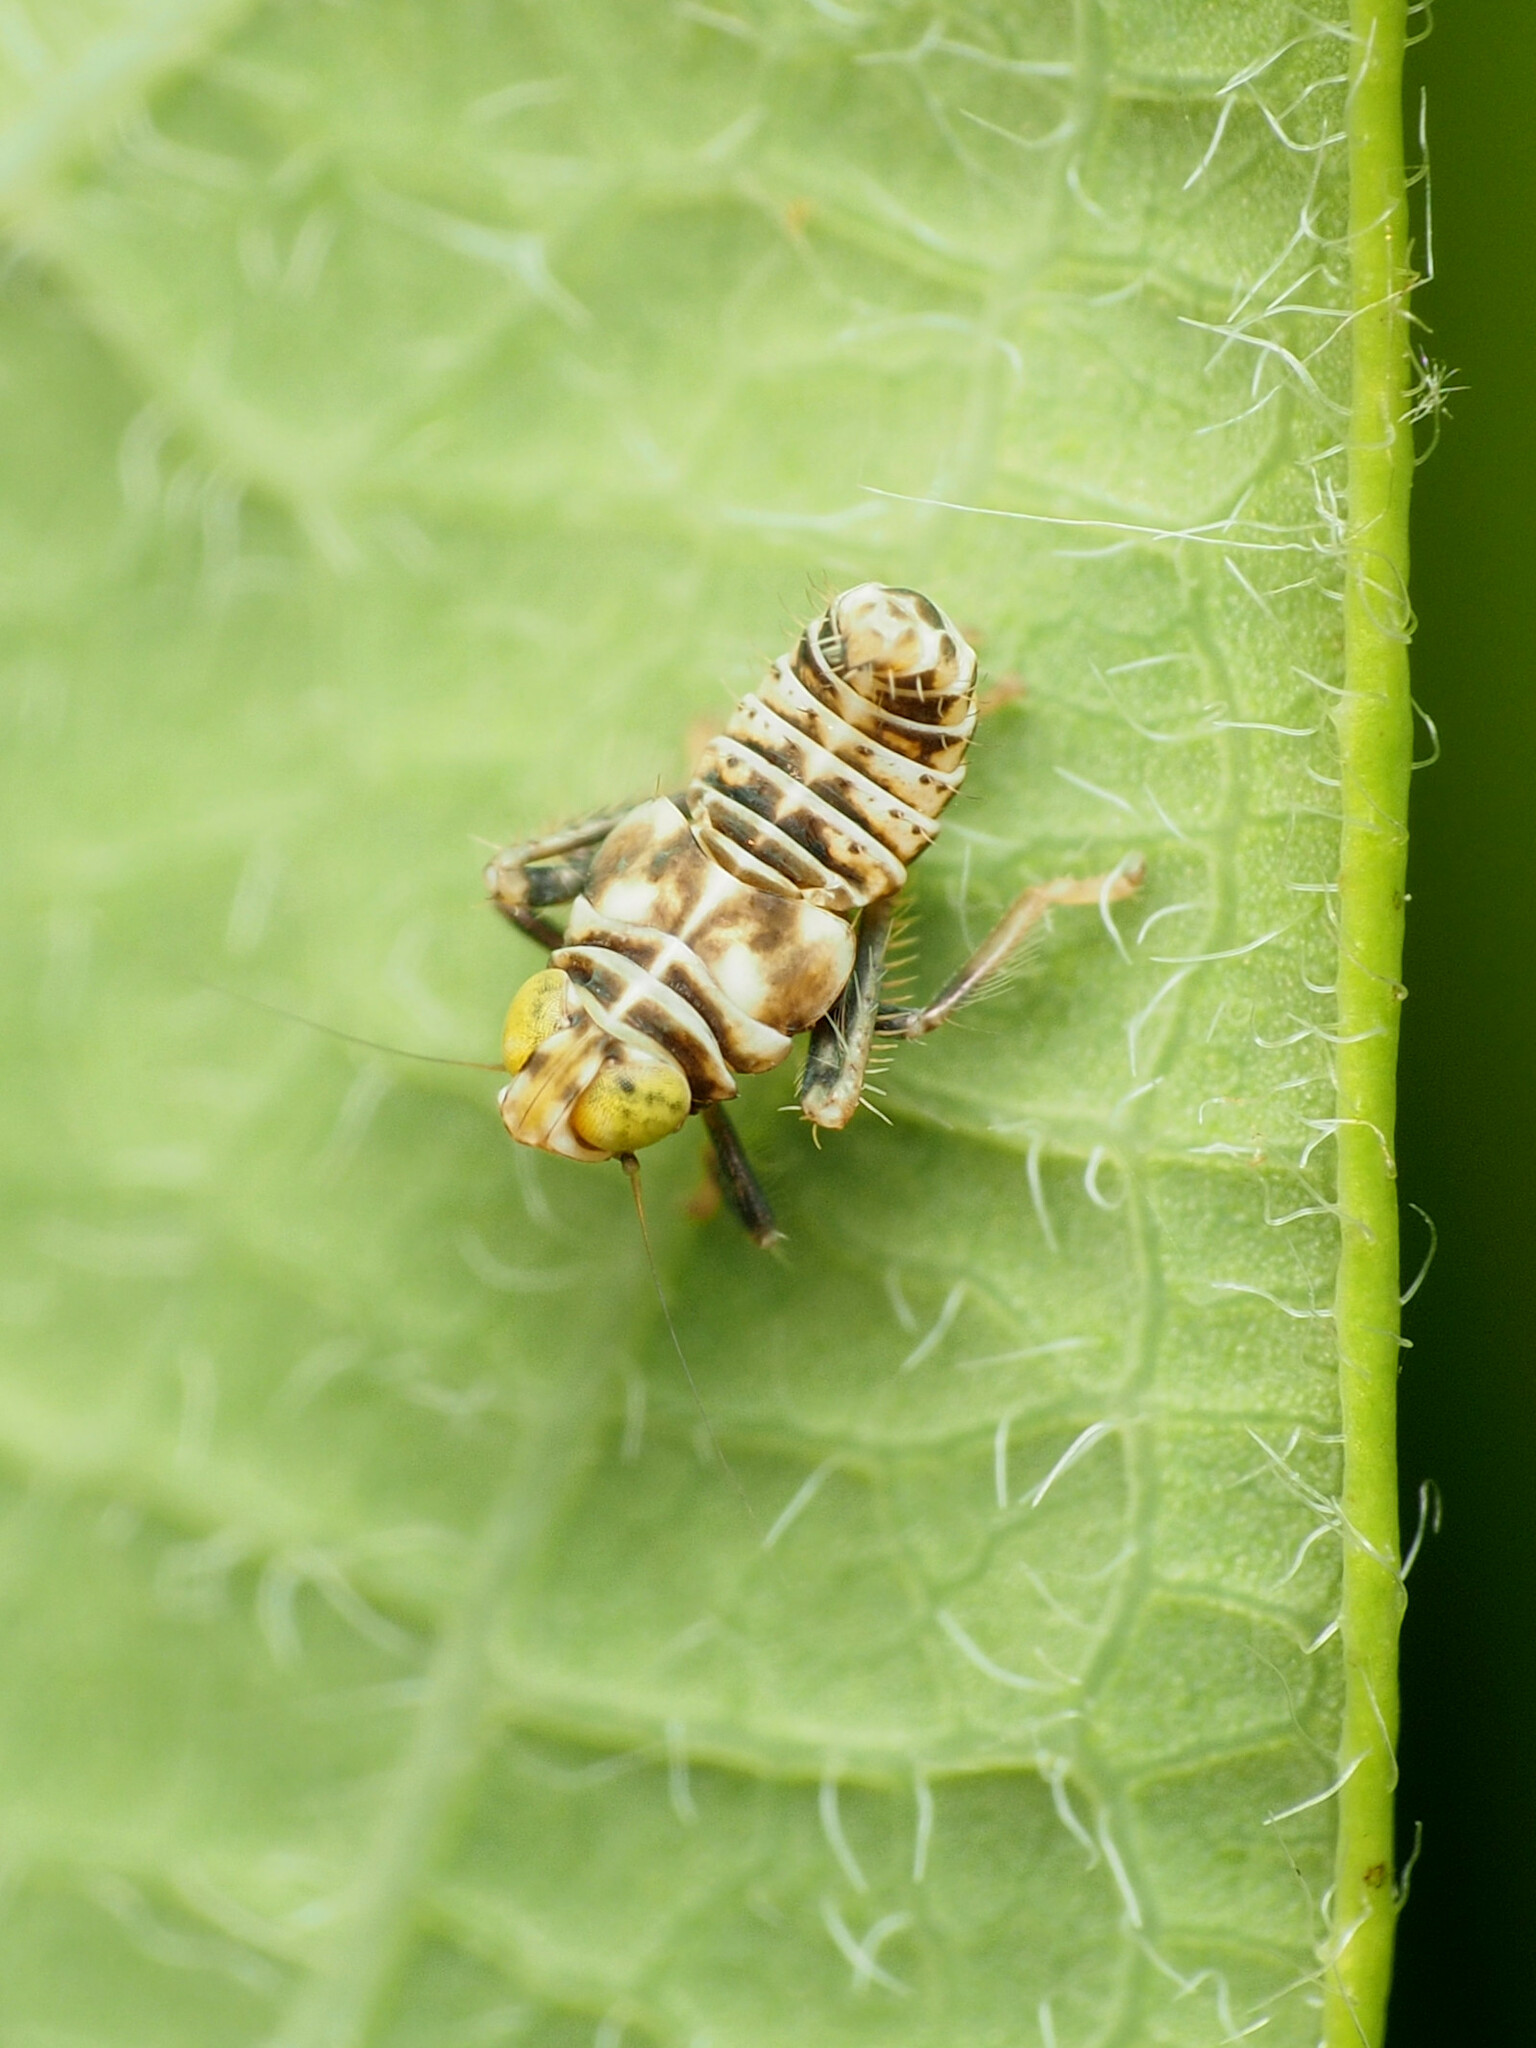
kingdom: Animalia
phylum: Arthropoda
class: Insecta
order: Hemiptera
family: Cicadellidae
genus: Jikradia
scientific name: Jikradia olitoria
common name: Coppery leafhopper
